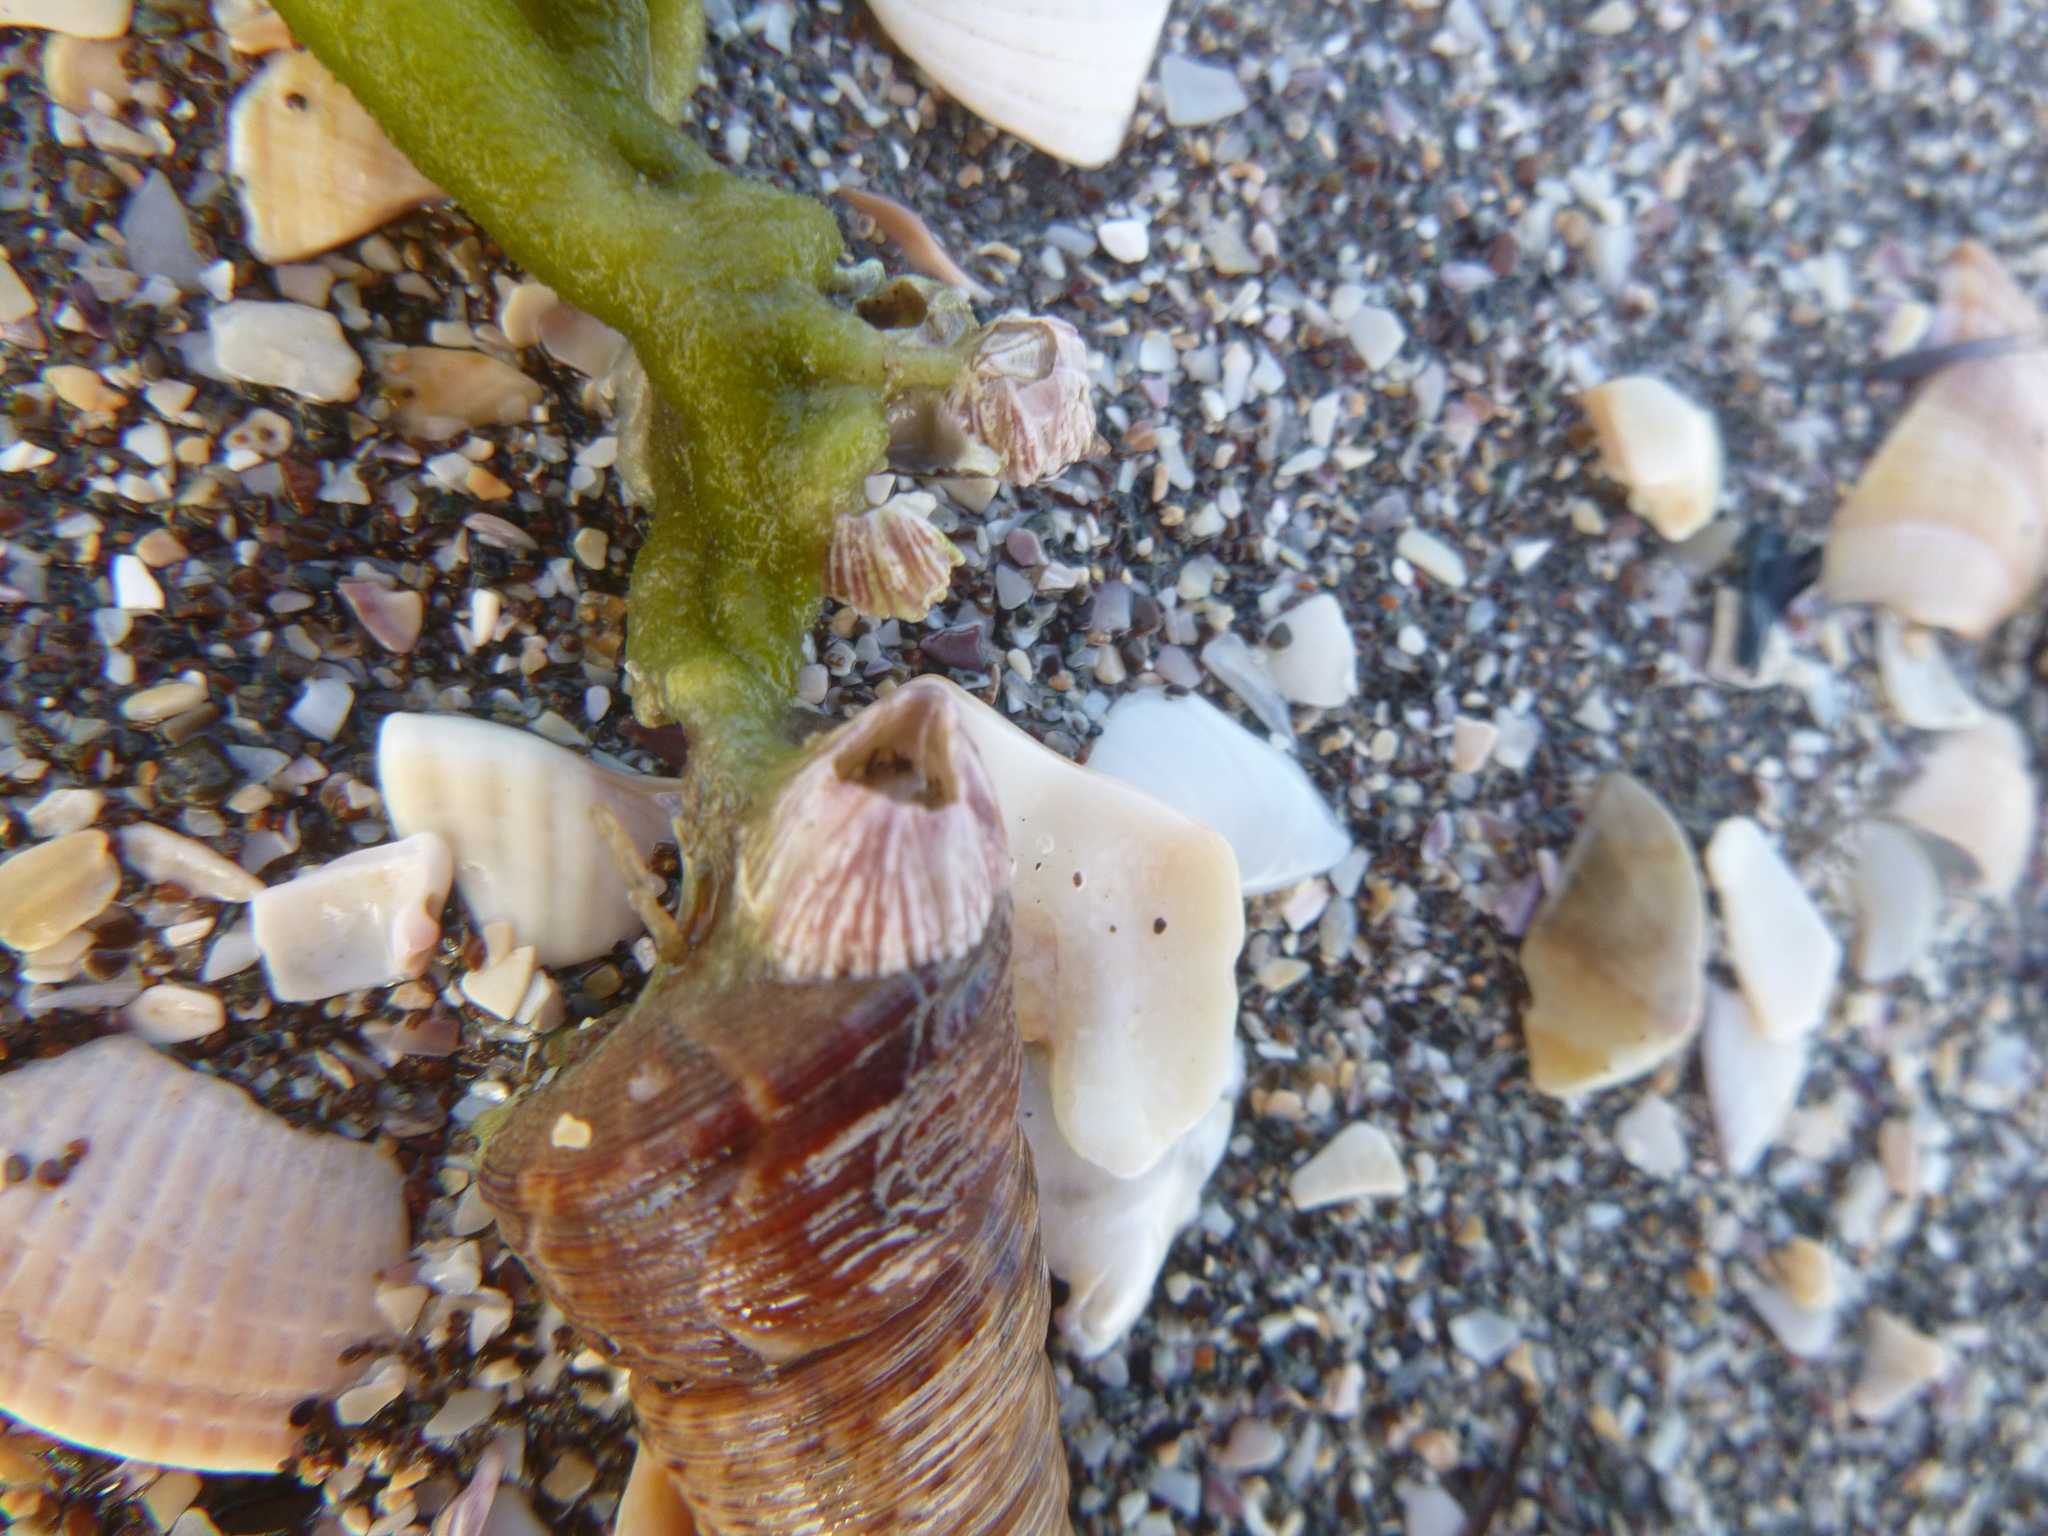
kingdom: Animalia
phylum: Arthropoda
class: Maxillopoda
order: Sessilia
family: Balanidae
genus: Balanus
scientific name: Balanus trigonus
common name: Triangle barnacle
